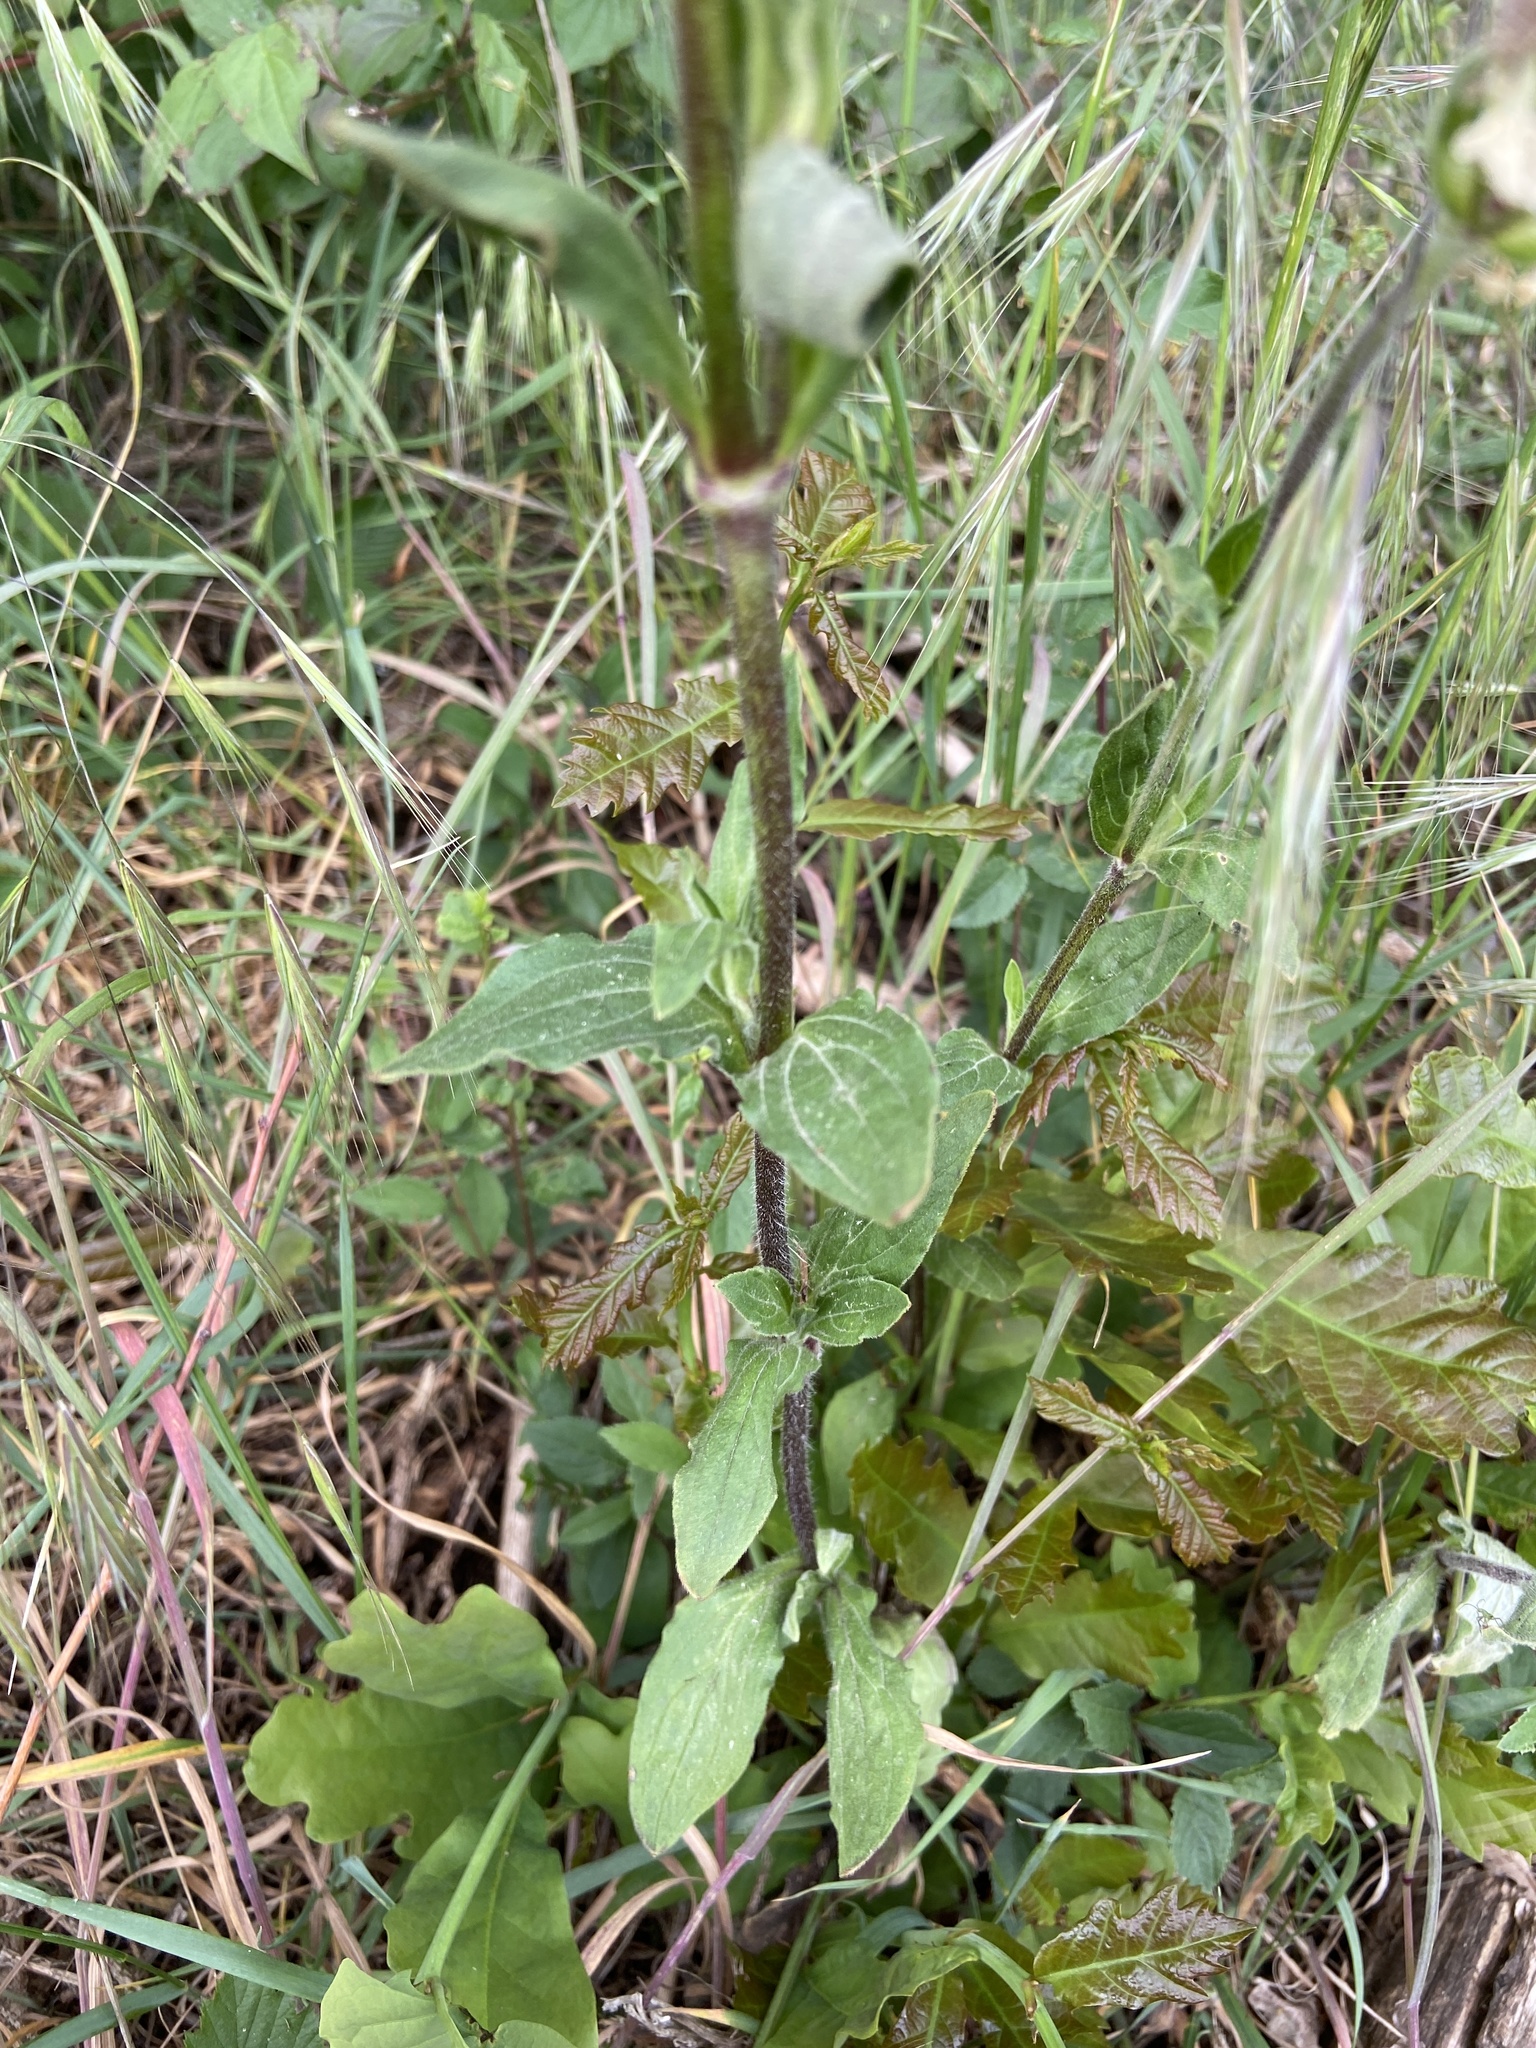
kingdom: Plantae
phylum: Tracheophyta
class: Magnoliopsida
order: Caryophyllales
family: Caryophyllaceae
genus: Silene
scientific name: Silene latifolia
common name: White campion
